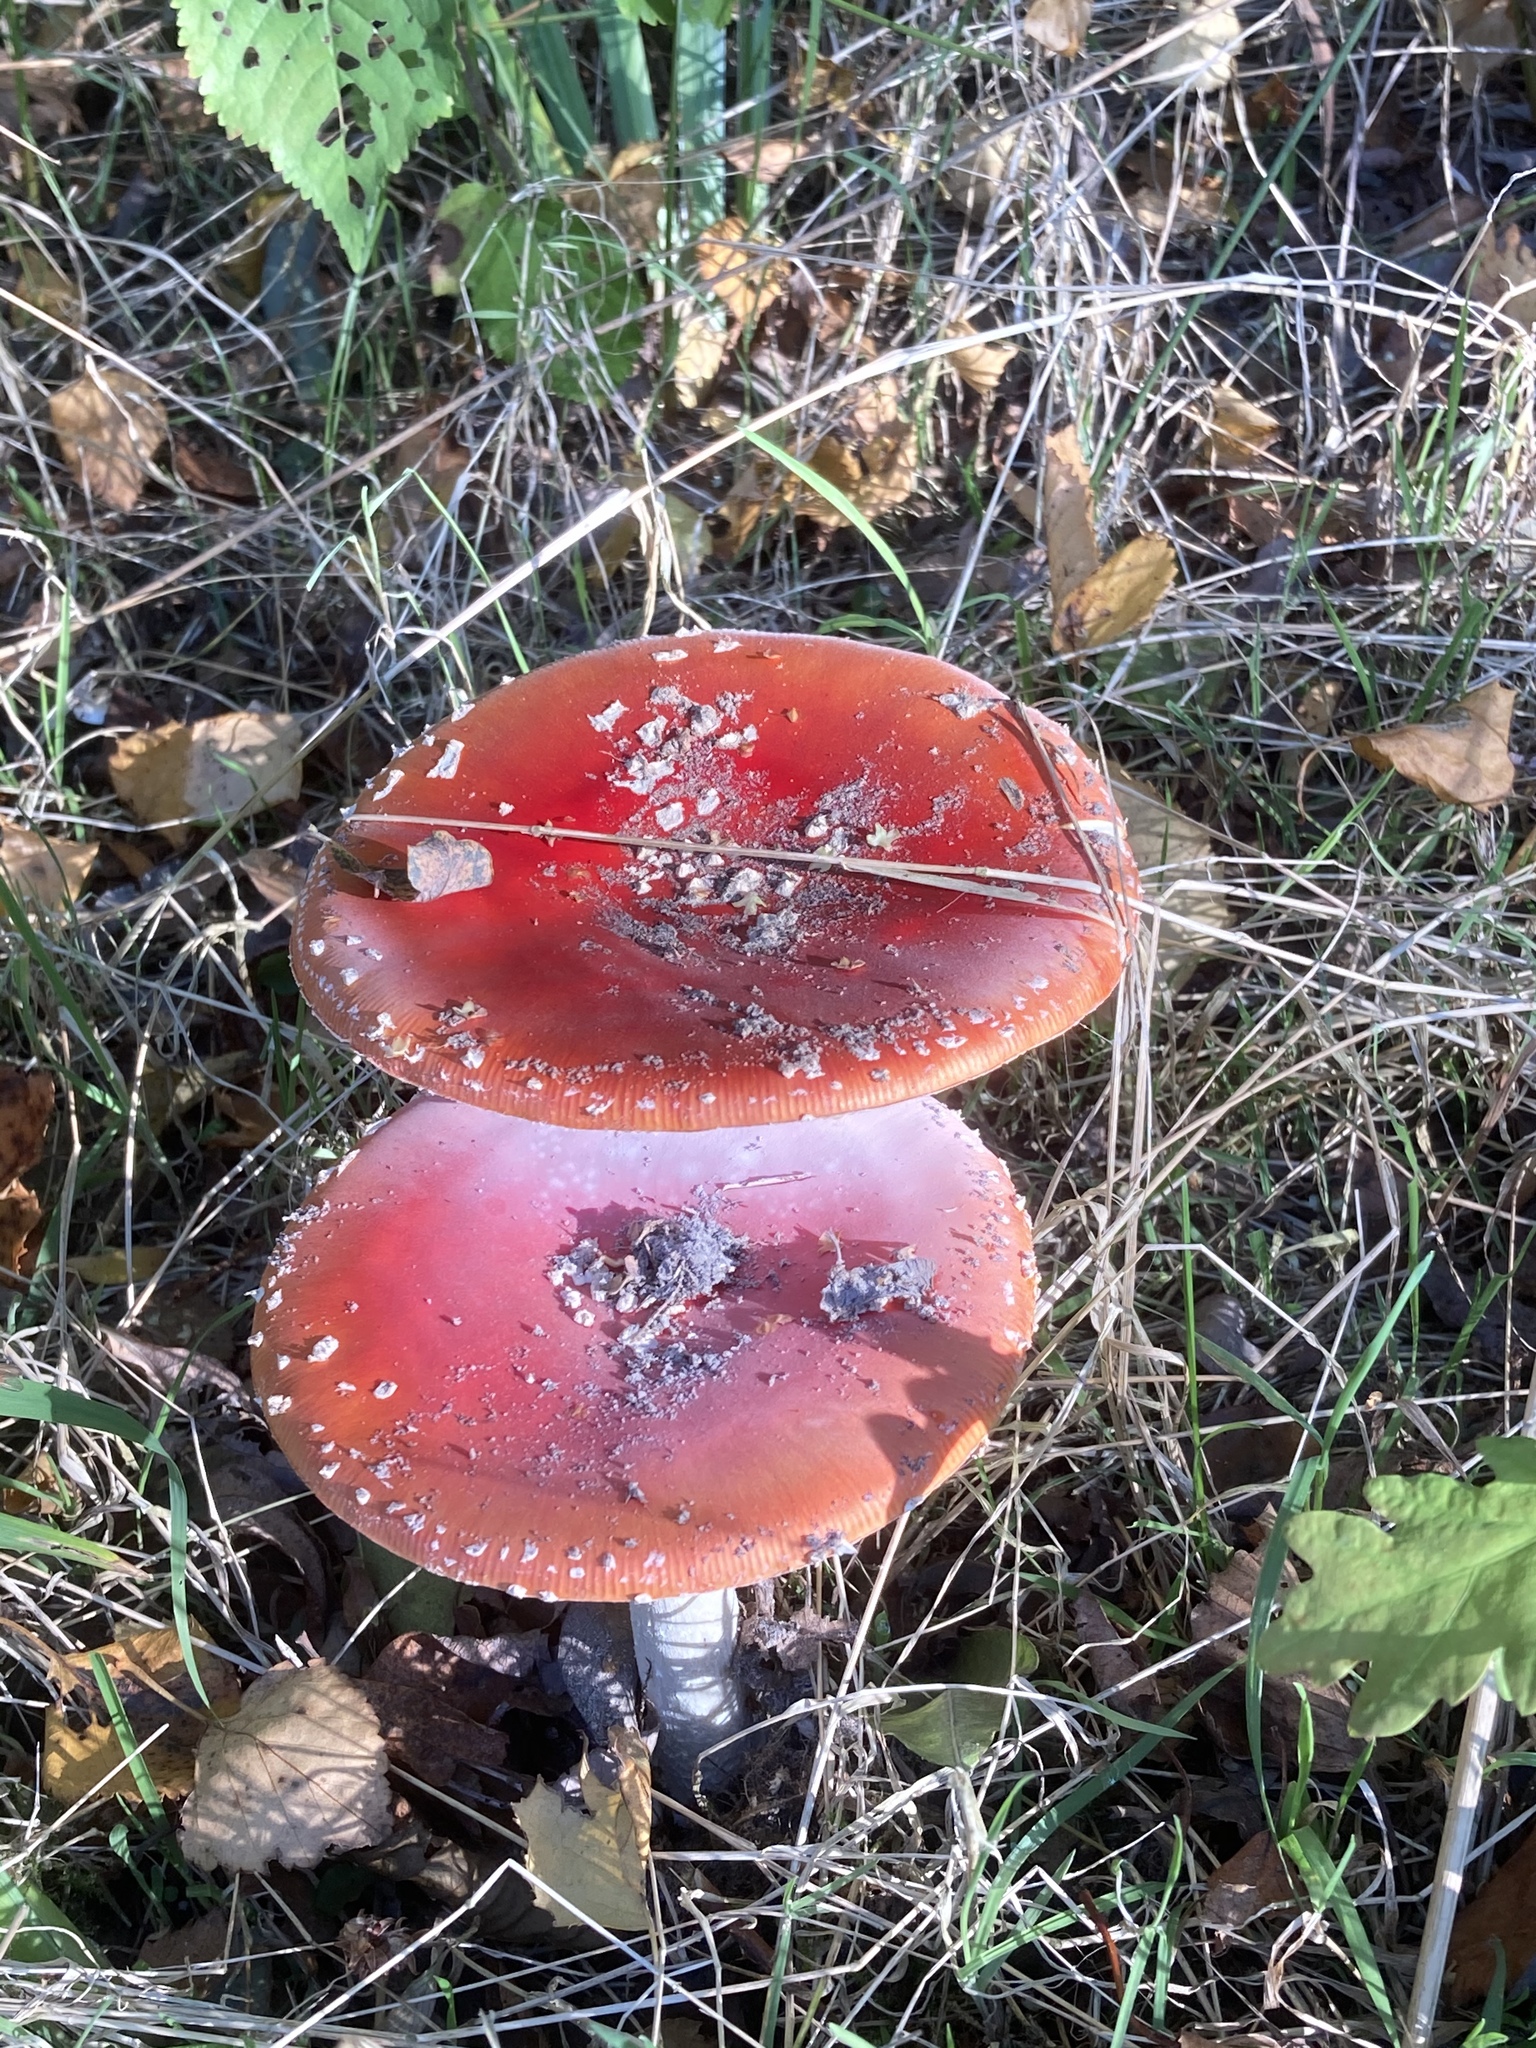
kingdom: Fungi
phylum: Basidiomycota
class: Agaricomycetes
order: Agaricales
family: Amanitaceae
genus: Amanita
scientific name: Amanita muscaria
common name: Fly agaric
